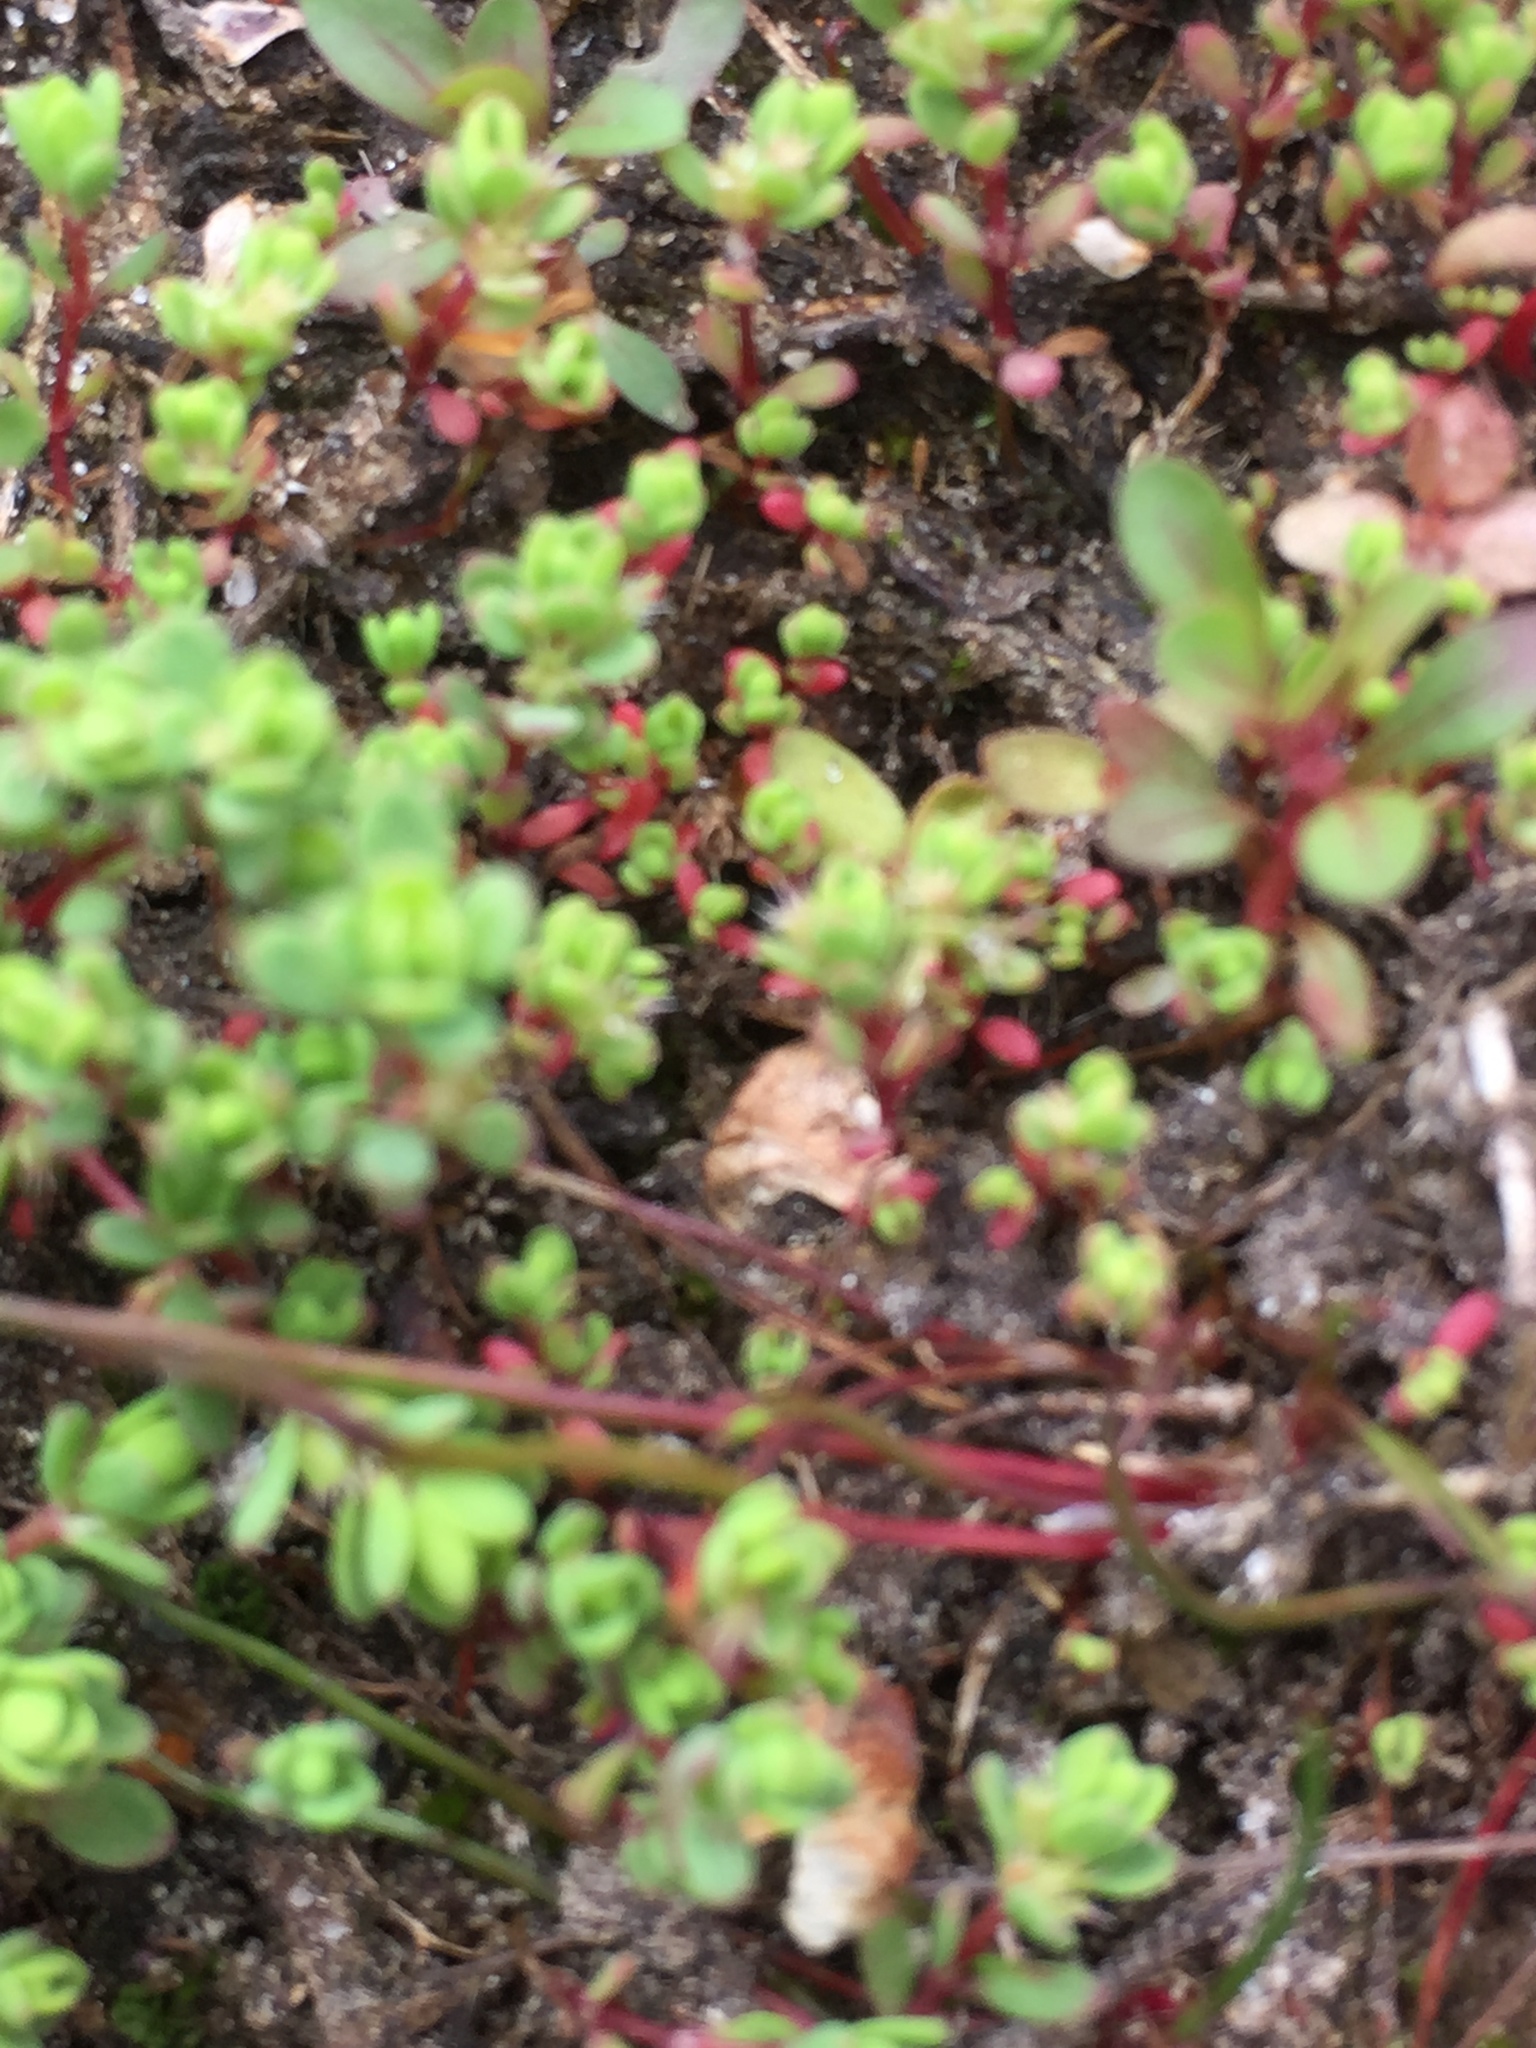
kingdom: Plantae
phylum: Tracheophyta
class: Magnoliopsida
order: Caryophyllales
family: Caryophyllaceae
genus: Illecebrum
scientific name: Illecebrum verticillatum
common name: Coral necklace
